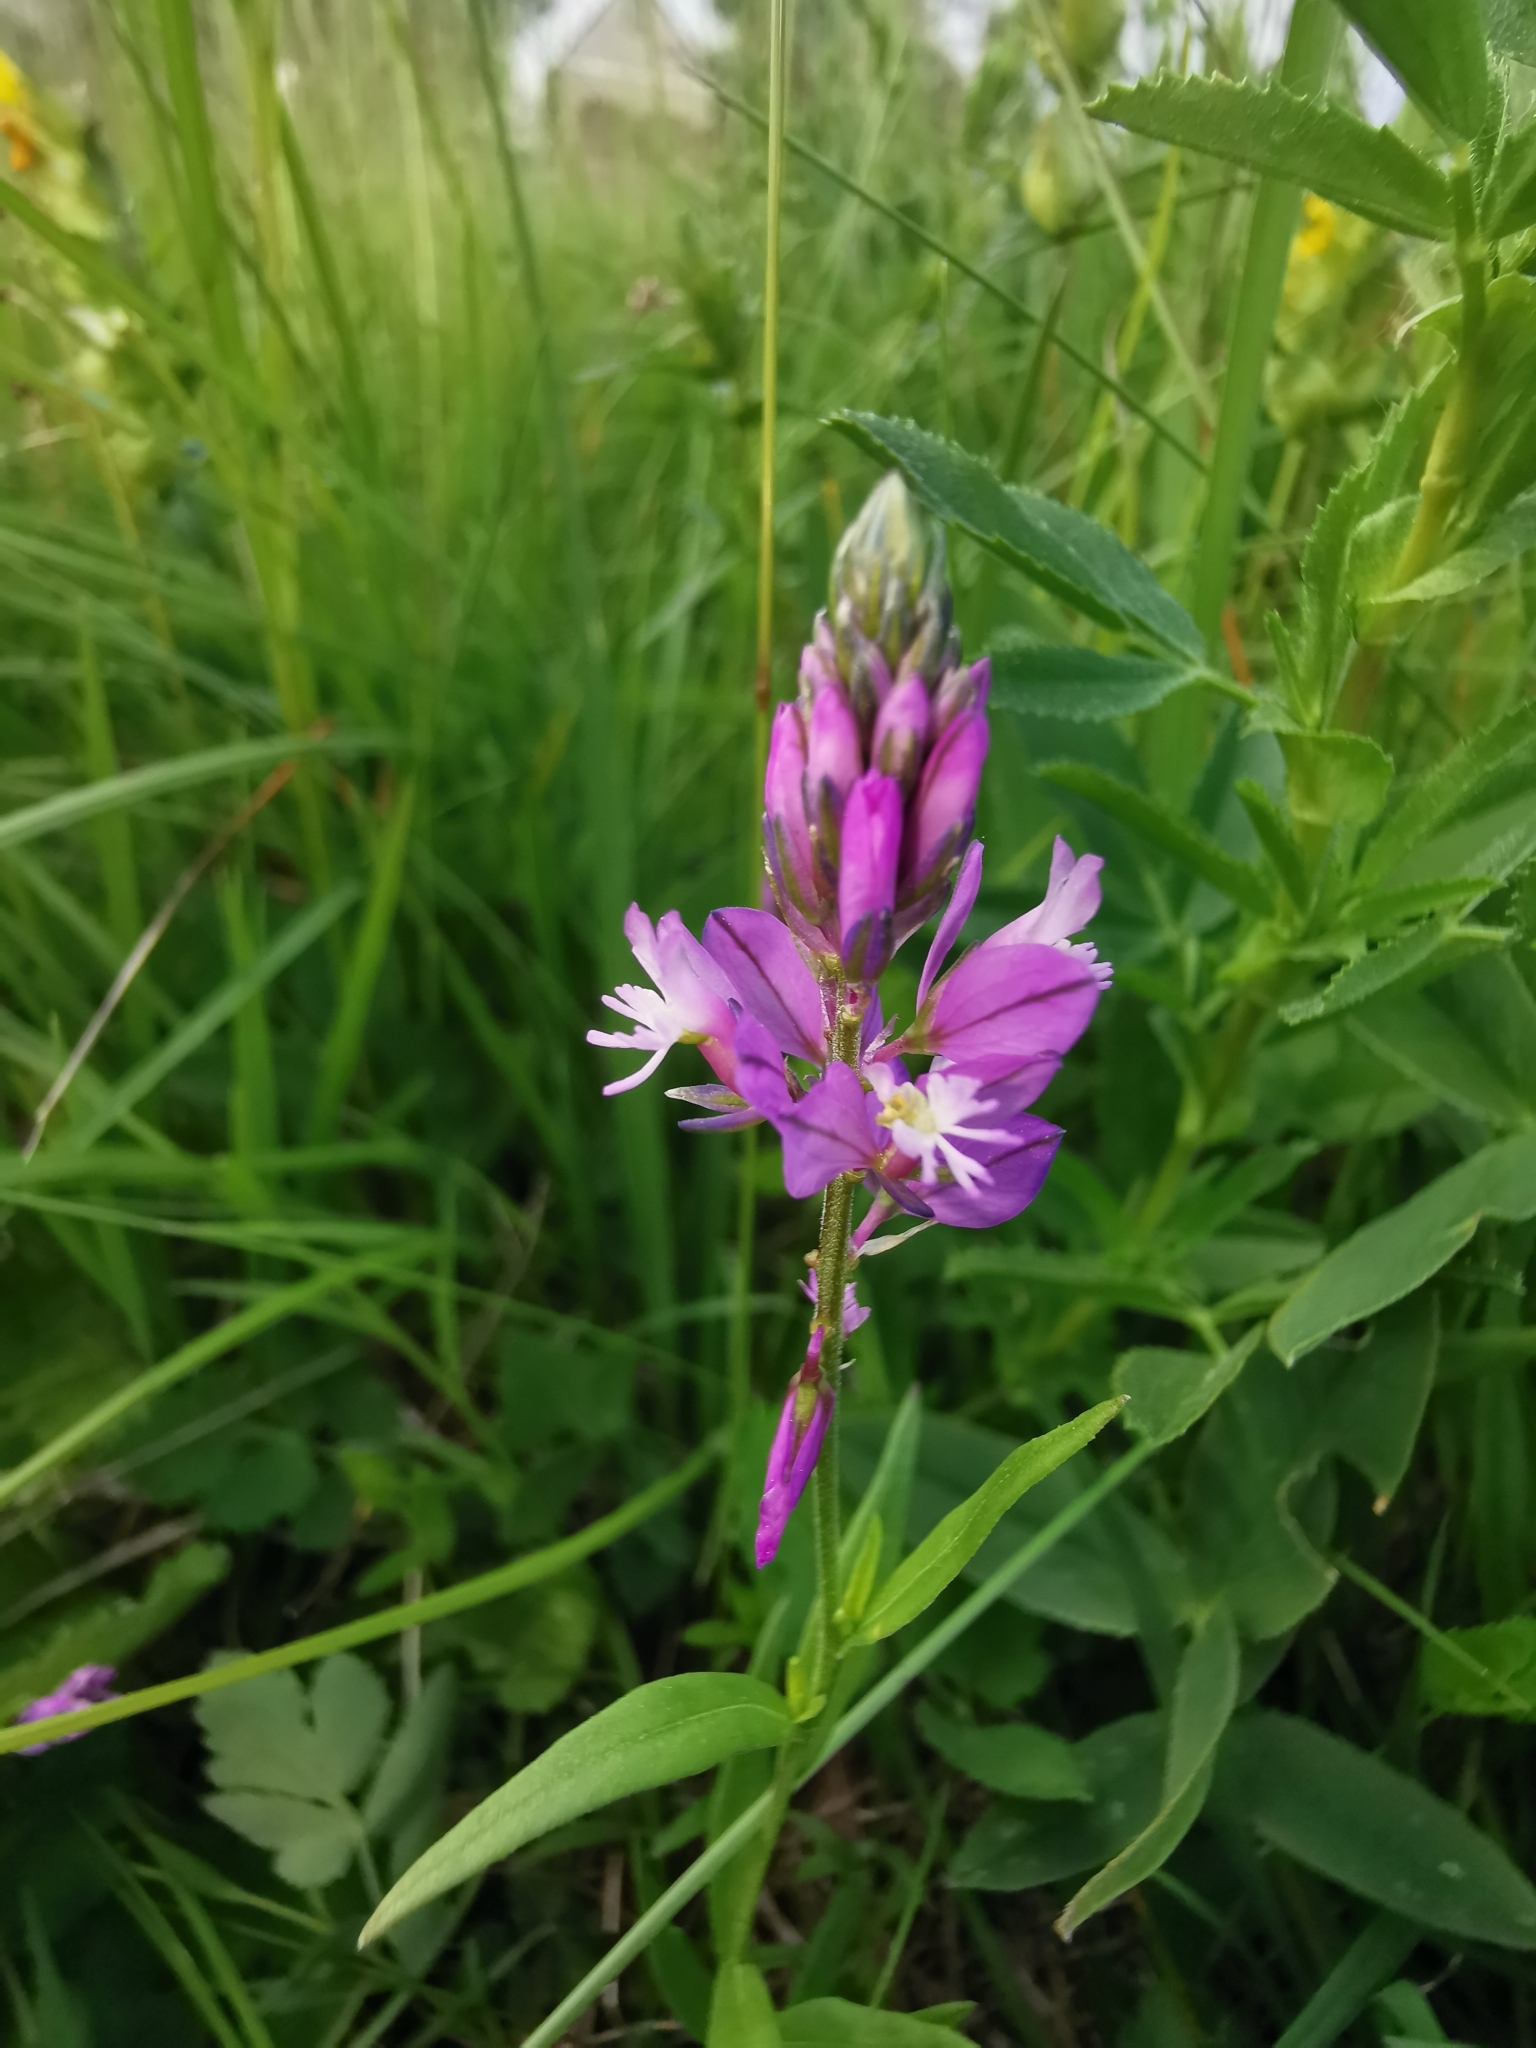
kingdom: Plantae
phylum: Tracheophyta
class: Magnoliopsida
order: Fabales
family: Polygalaceae
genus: Polygala
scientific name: Polygala major
